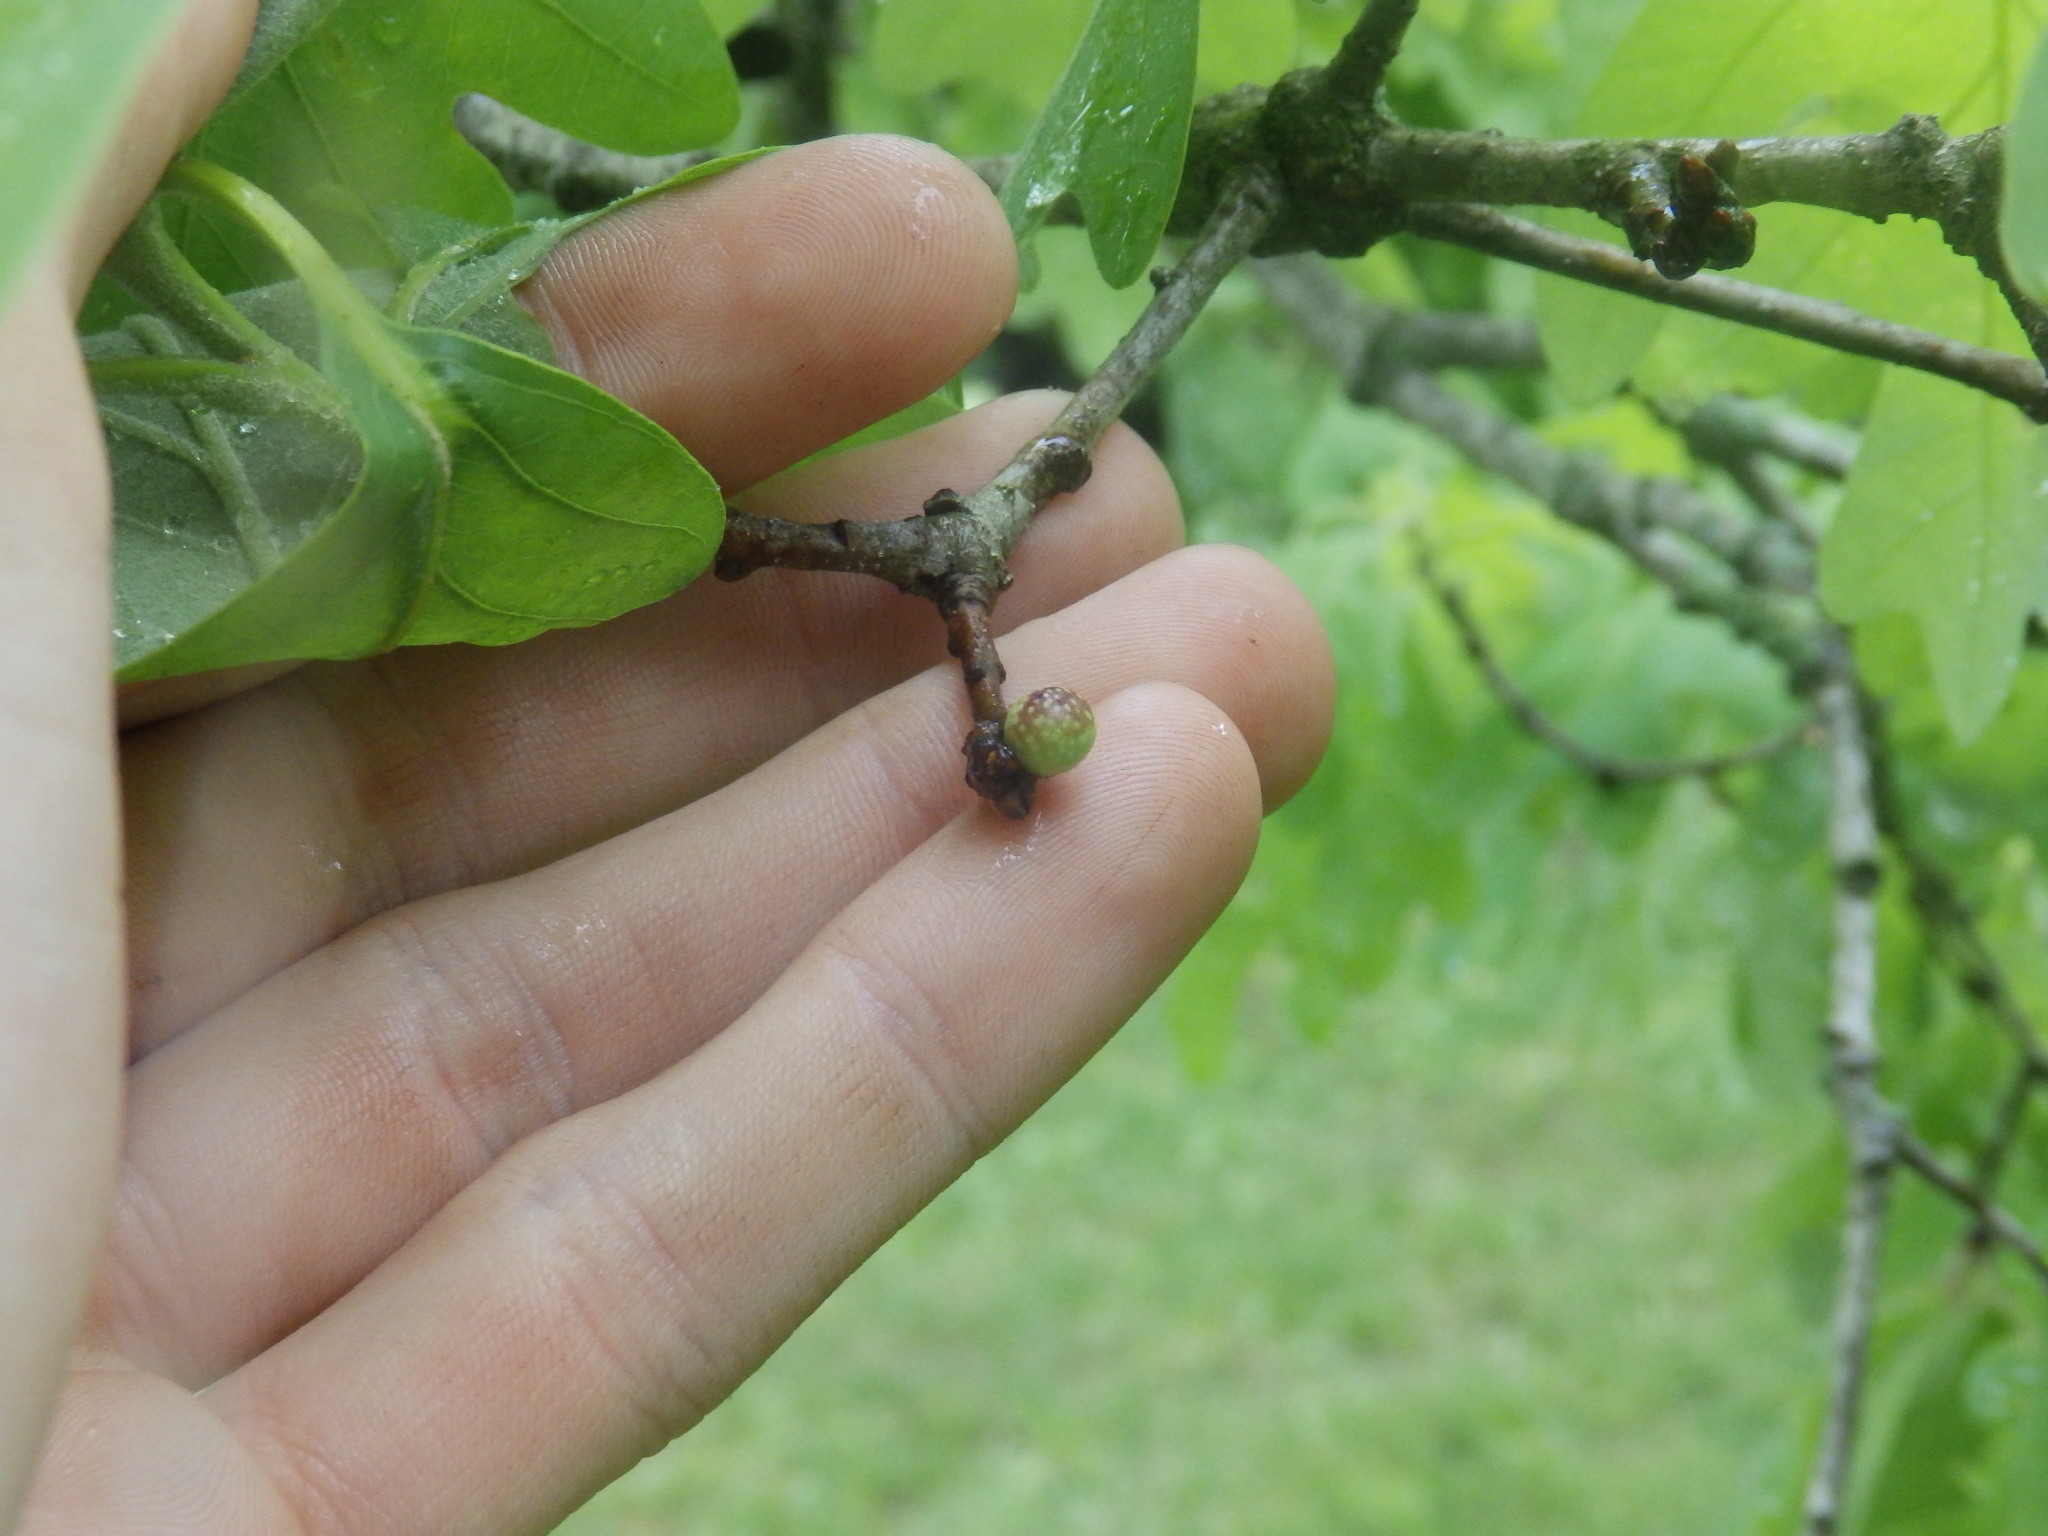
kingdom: Animalia
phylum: Arthropoda
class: Insecta
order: Hymenoptera
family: Cynipidae
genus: Andricus
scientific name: Andricus
